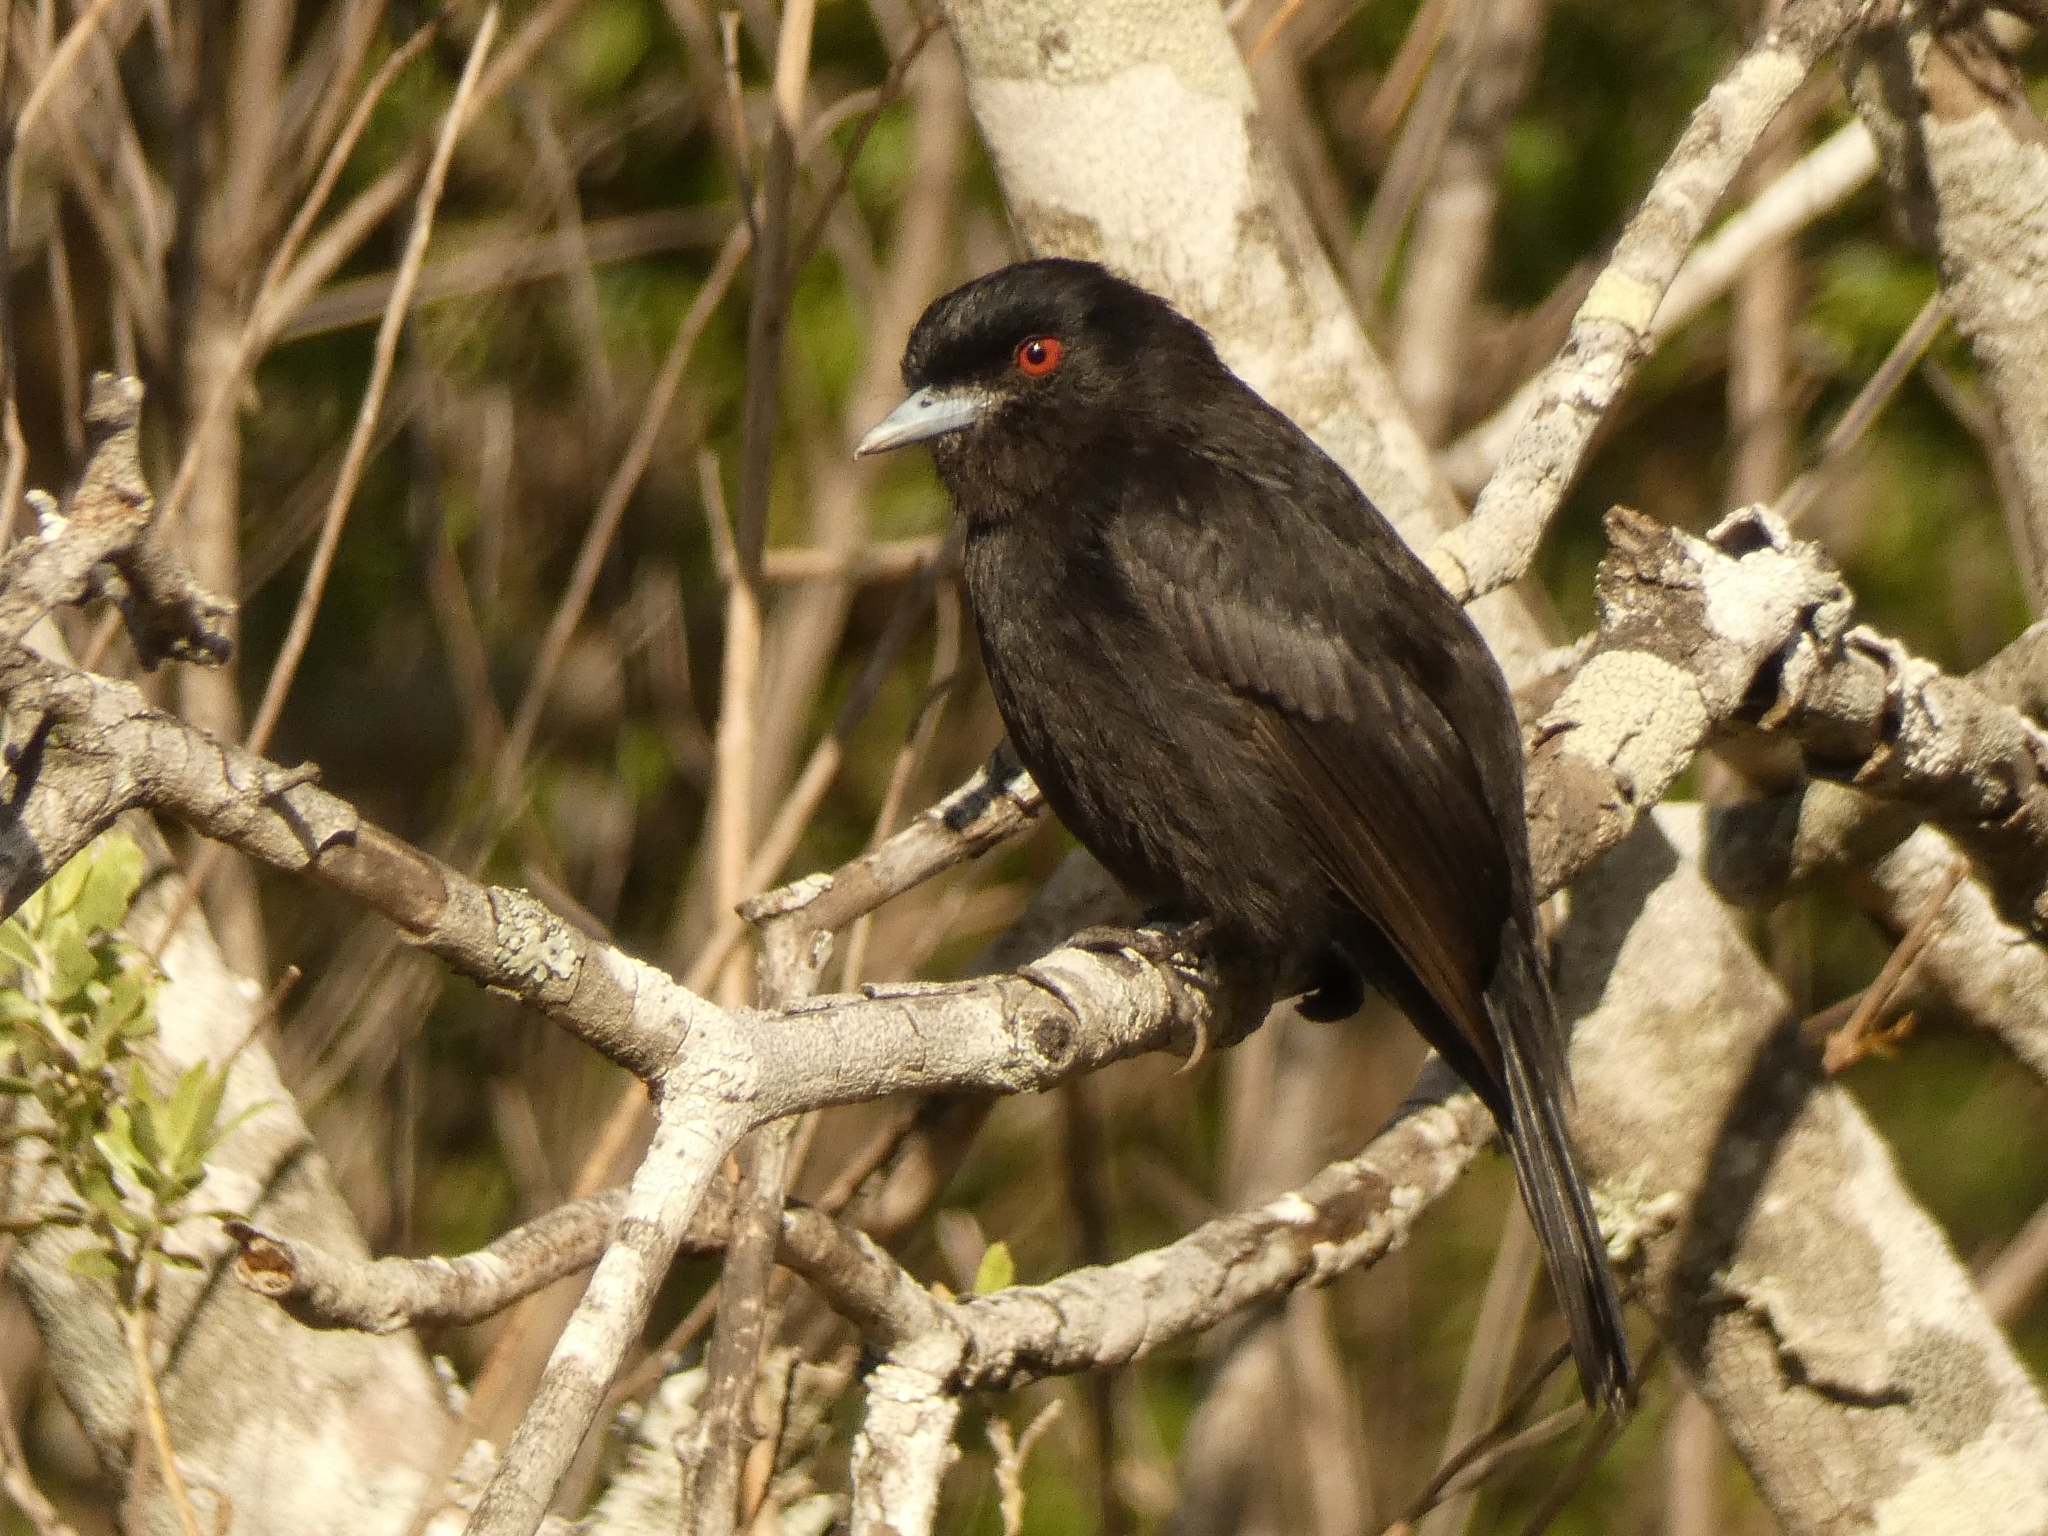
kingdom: Animalia
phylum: Chordata
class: Aves
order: Passeriformes
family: Tyrannidae
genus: Knipolegus
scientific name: Knipolegus cyanirostris
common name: Blue-billed black tyrant
